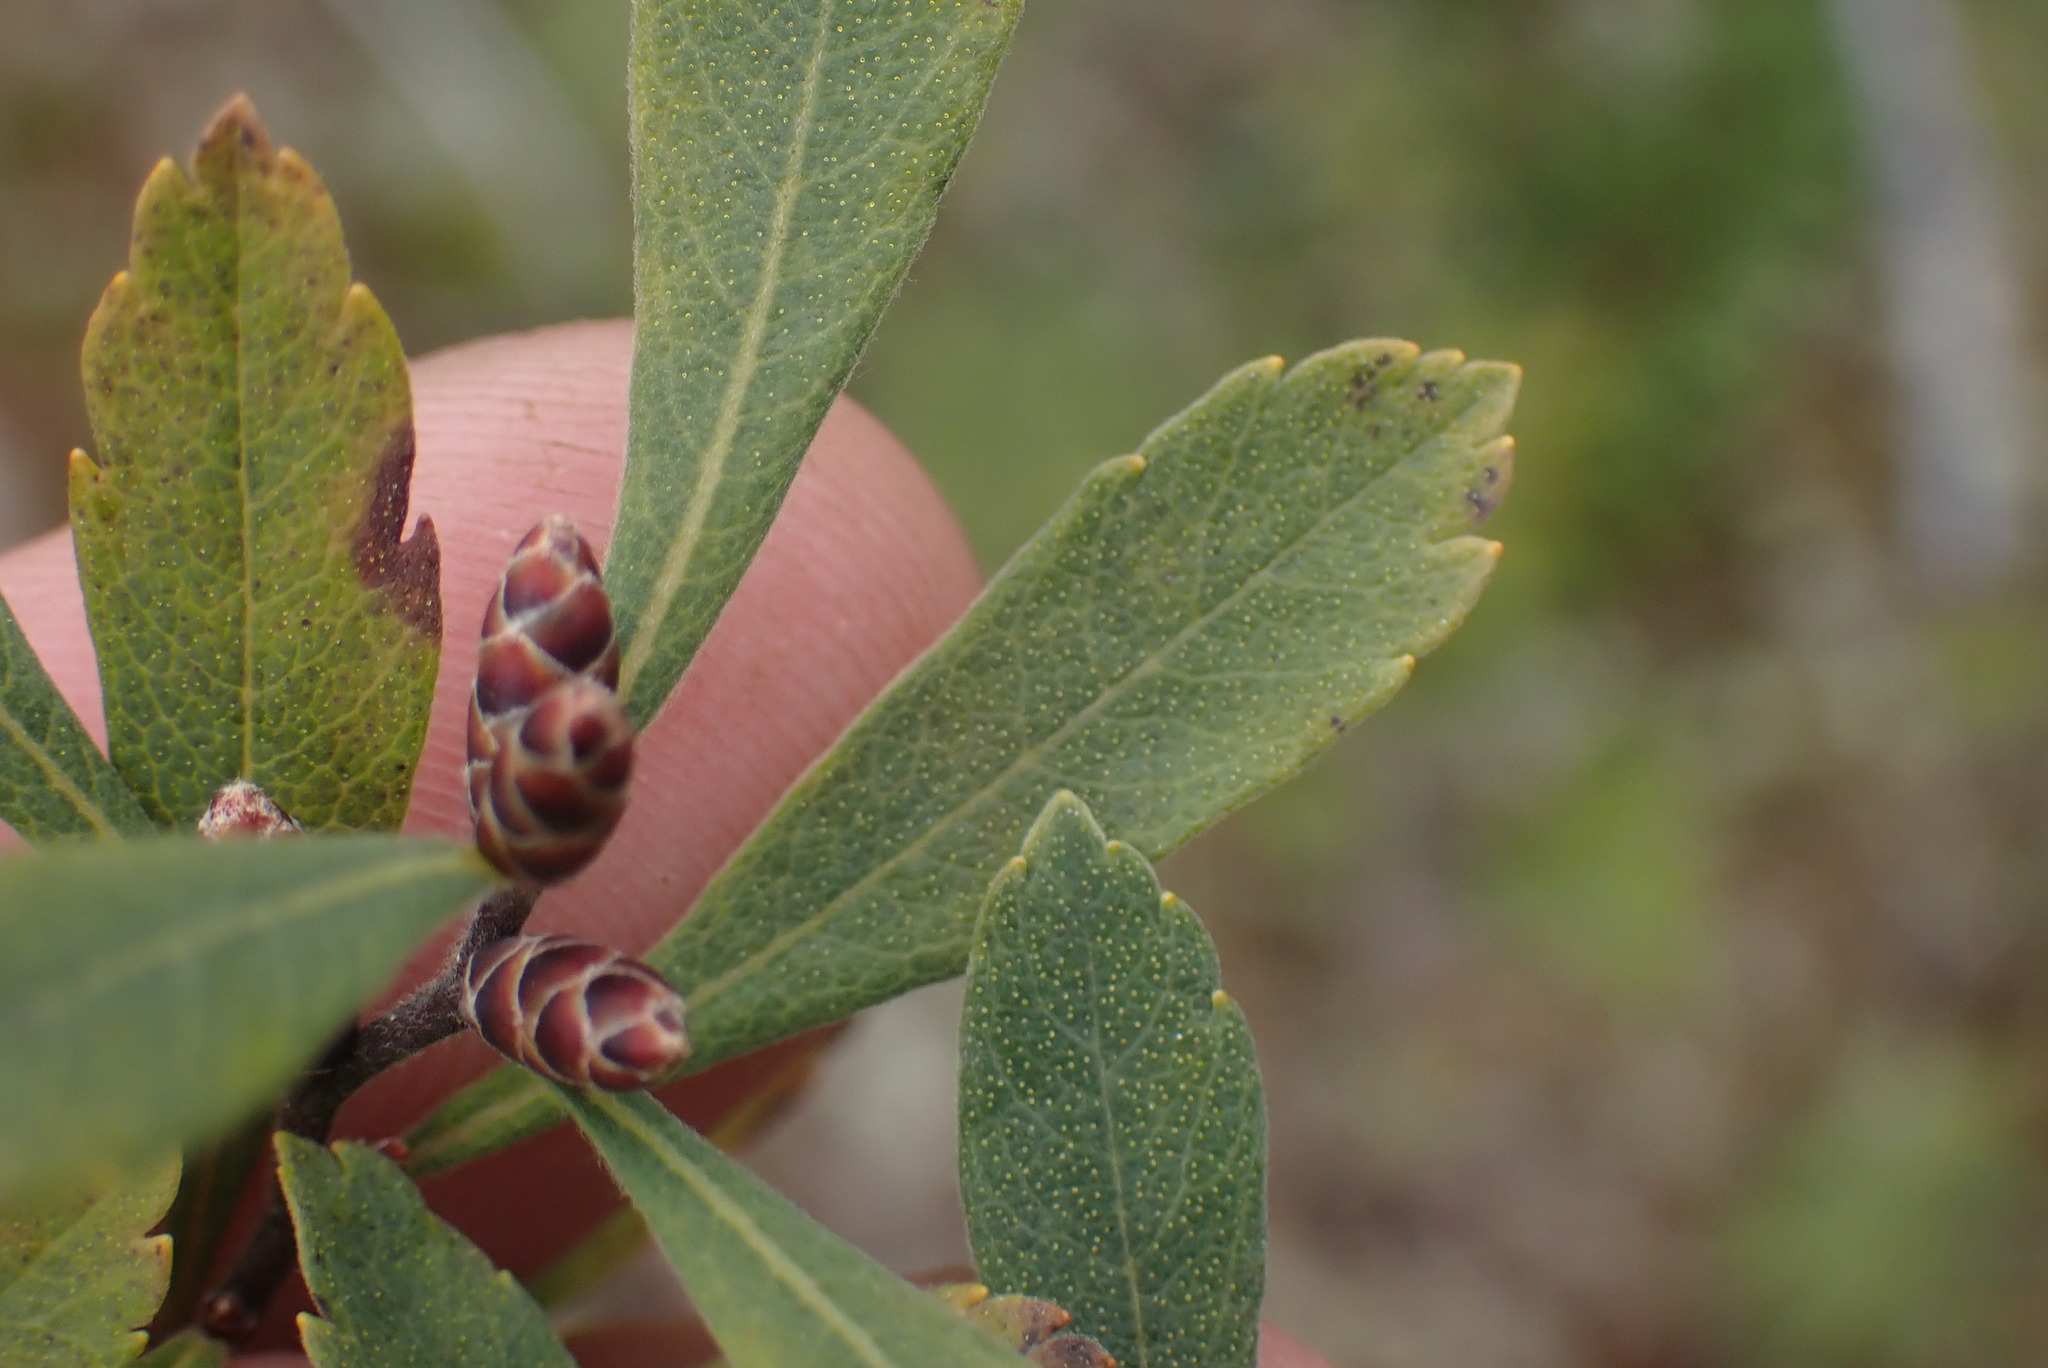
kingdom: Plantae
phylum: Tracheophyta
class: Magnoliopsida
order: Fagales
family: Myricaceae
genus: Myrica
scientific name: Myrica gale
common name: Sweet gale
